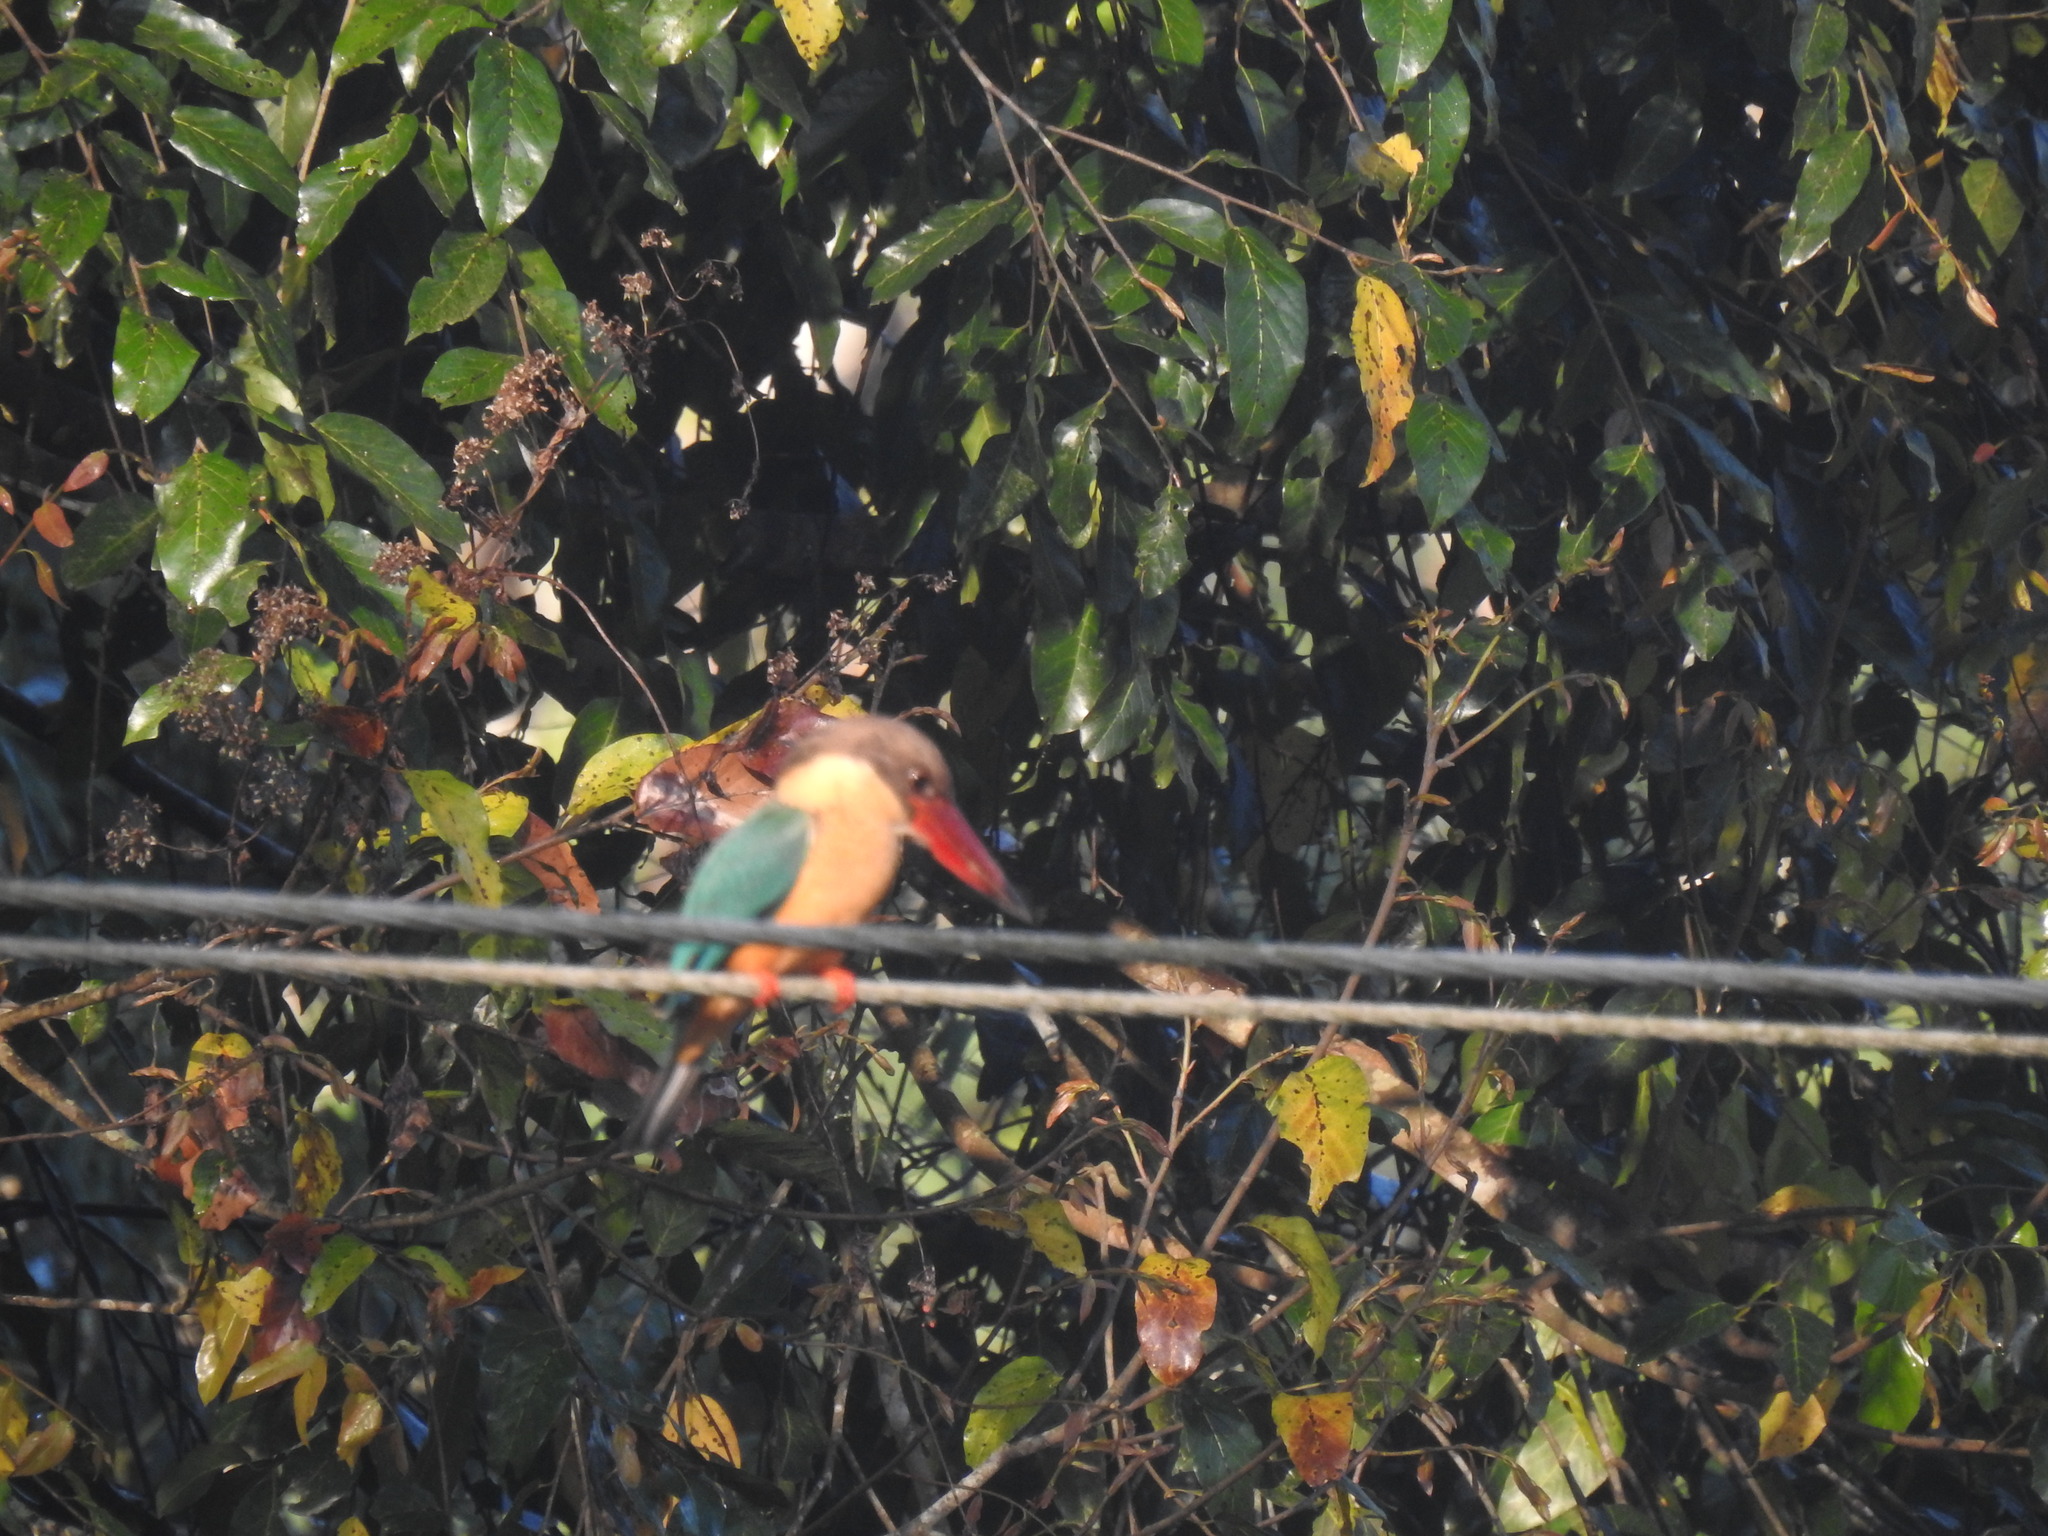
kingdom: Animalia
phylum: Chordata
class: Aves
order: Coraciiformes
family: Alcedinidae
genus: Pelargopsis
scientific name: Pelargopsis capensis
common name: Stork-billed kingfisher
